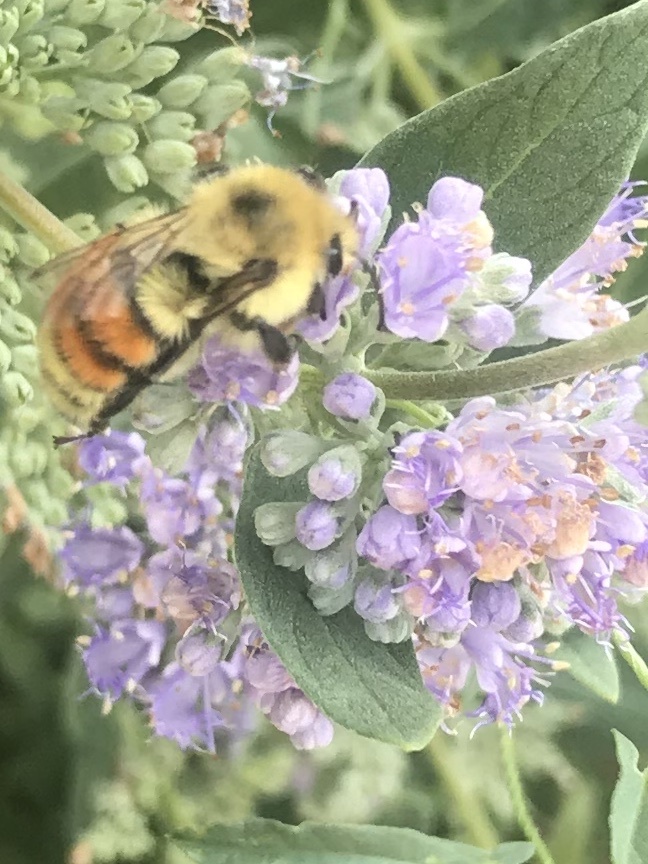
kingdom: Animalia
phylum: Arthropoda
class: Insecta
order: Hymenoptera
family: Apidae
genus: Bombus
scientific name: Bombus huntii
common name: Hunt bumble bee
